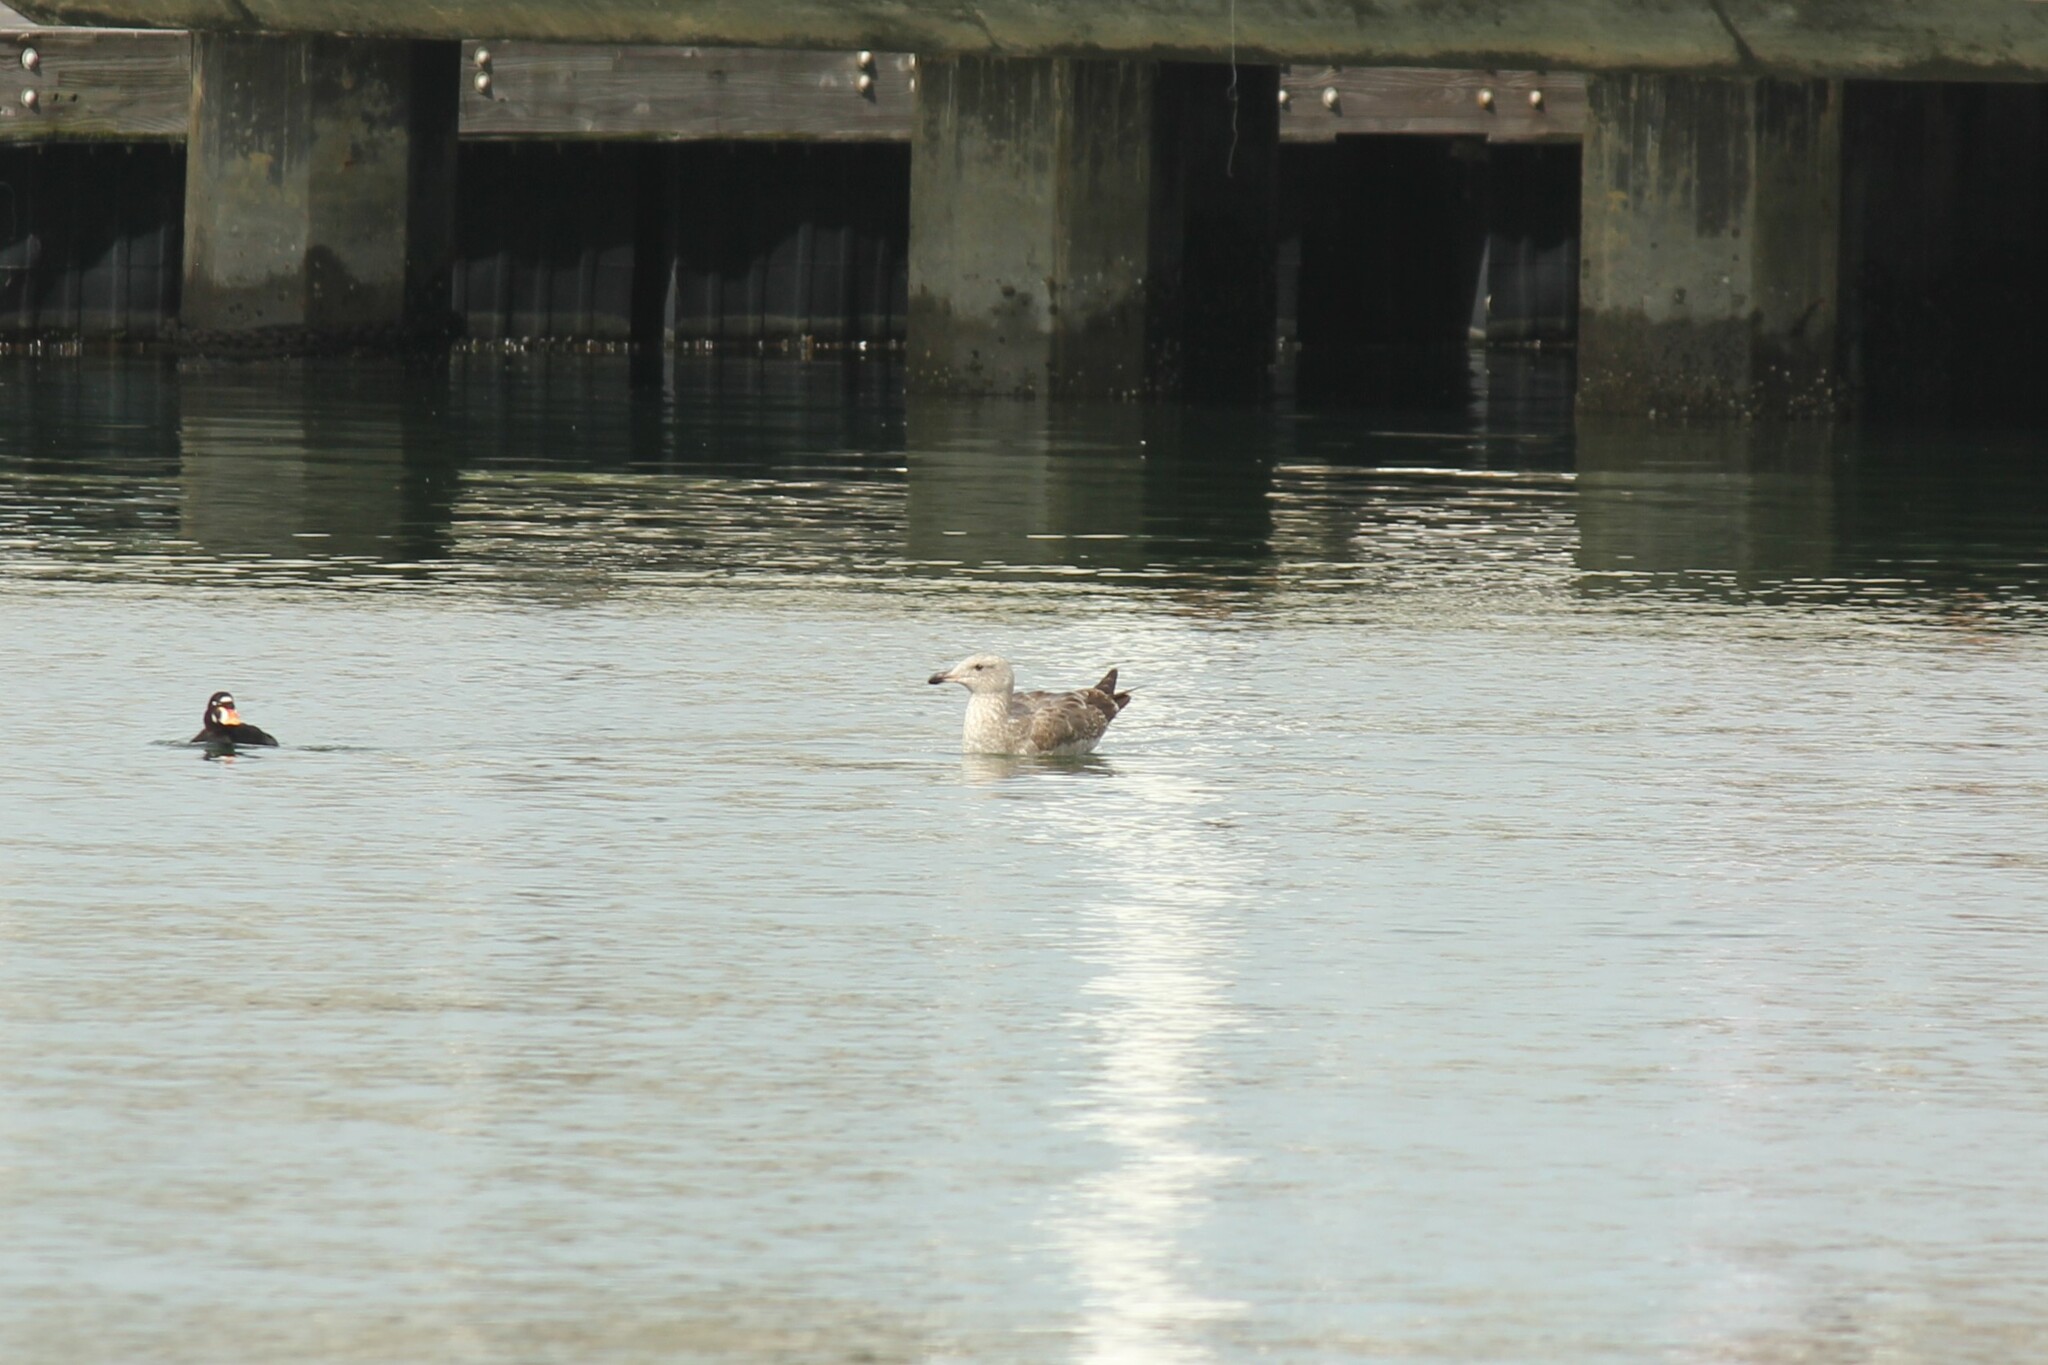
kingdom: Animalia
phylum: Chordata
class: Aves
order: Charadriiformes
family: Laridae
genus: Larus
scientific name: Larus occidentalis
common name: Western gull
